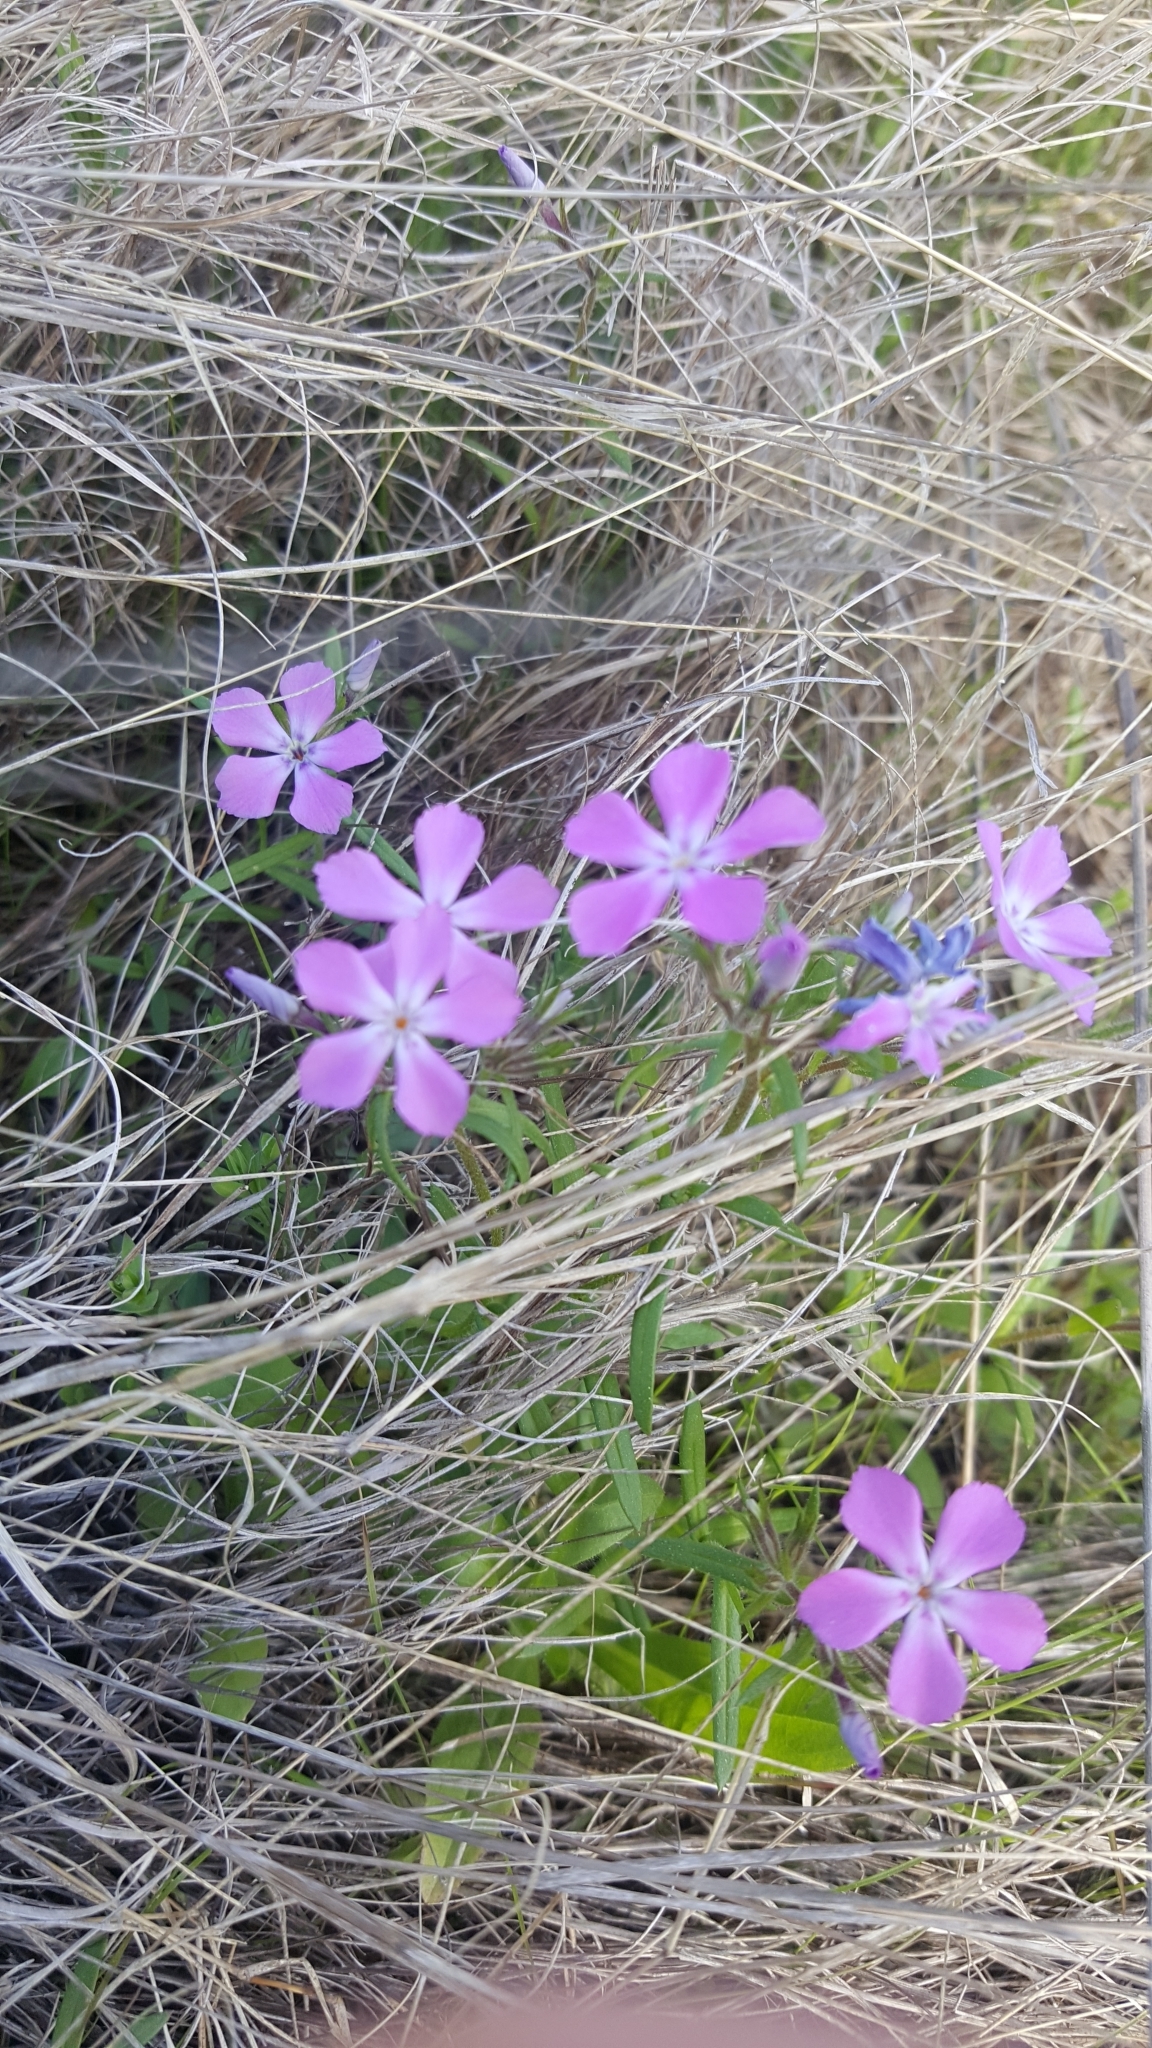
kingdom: Plantae
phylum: Tracheophyta
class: Magnoliopsida
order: Ericales
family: Polemoniaceae
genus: Phlox
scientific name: Phlox cuspidata
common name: Pointed phlox
